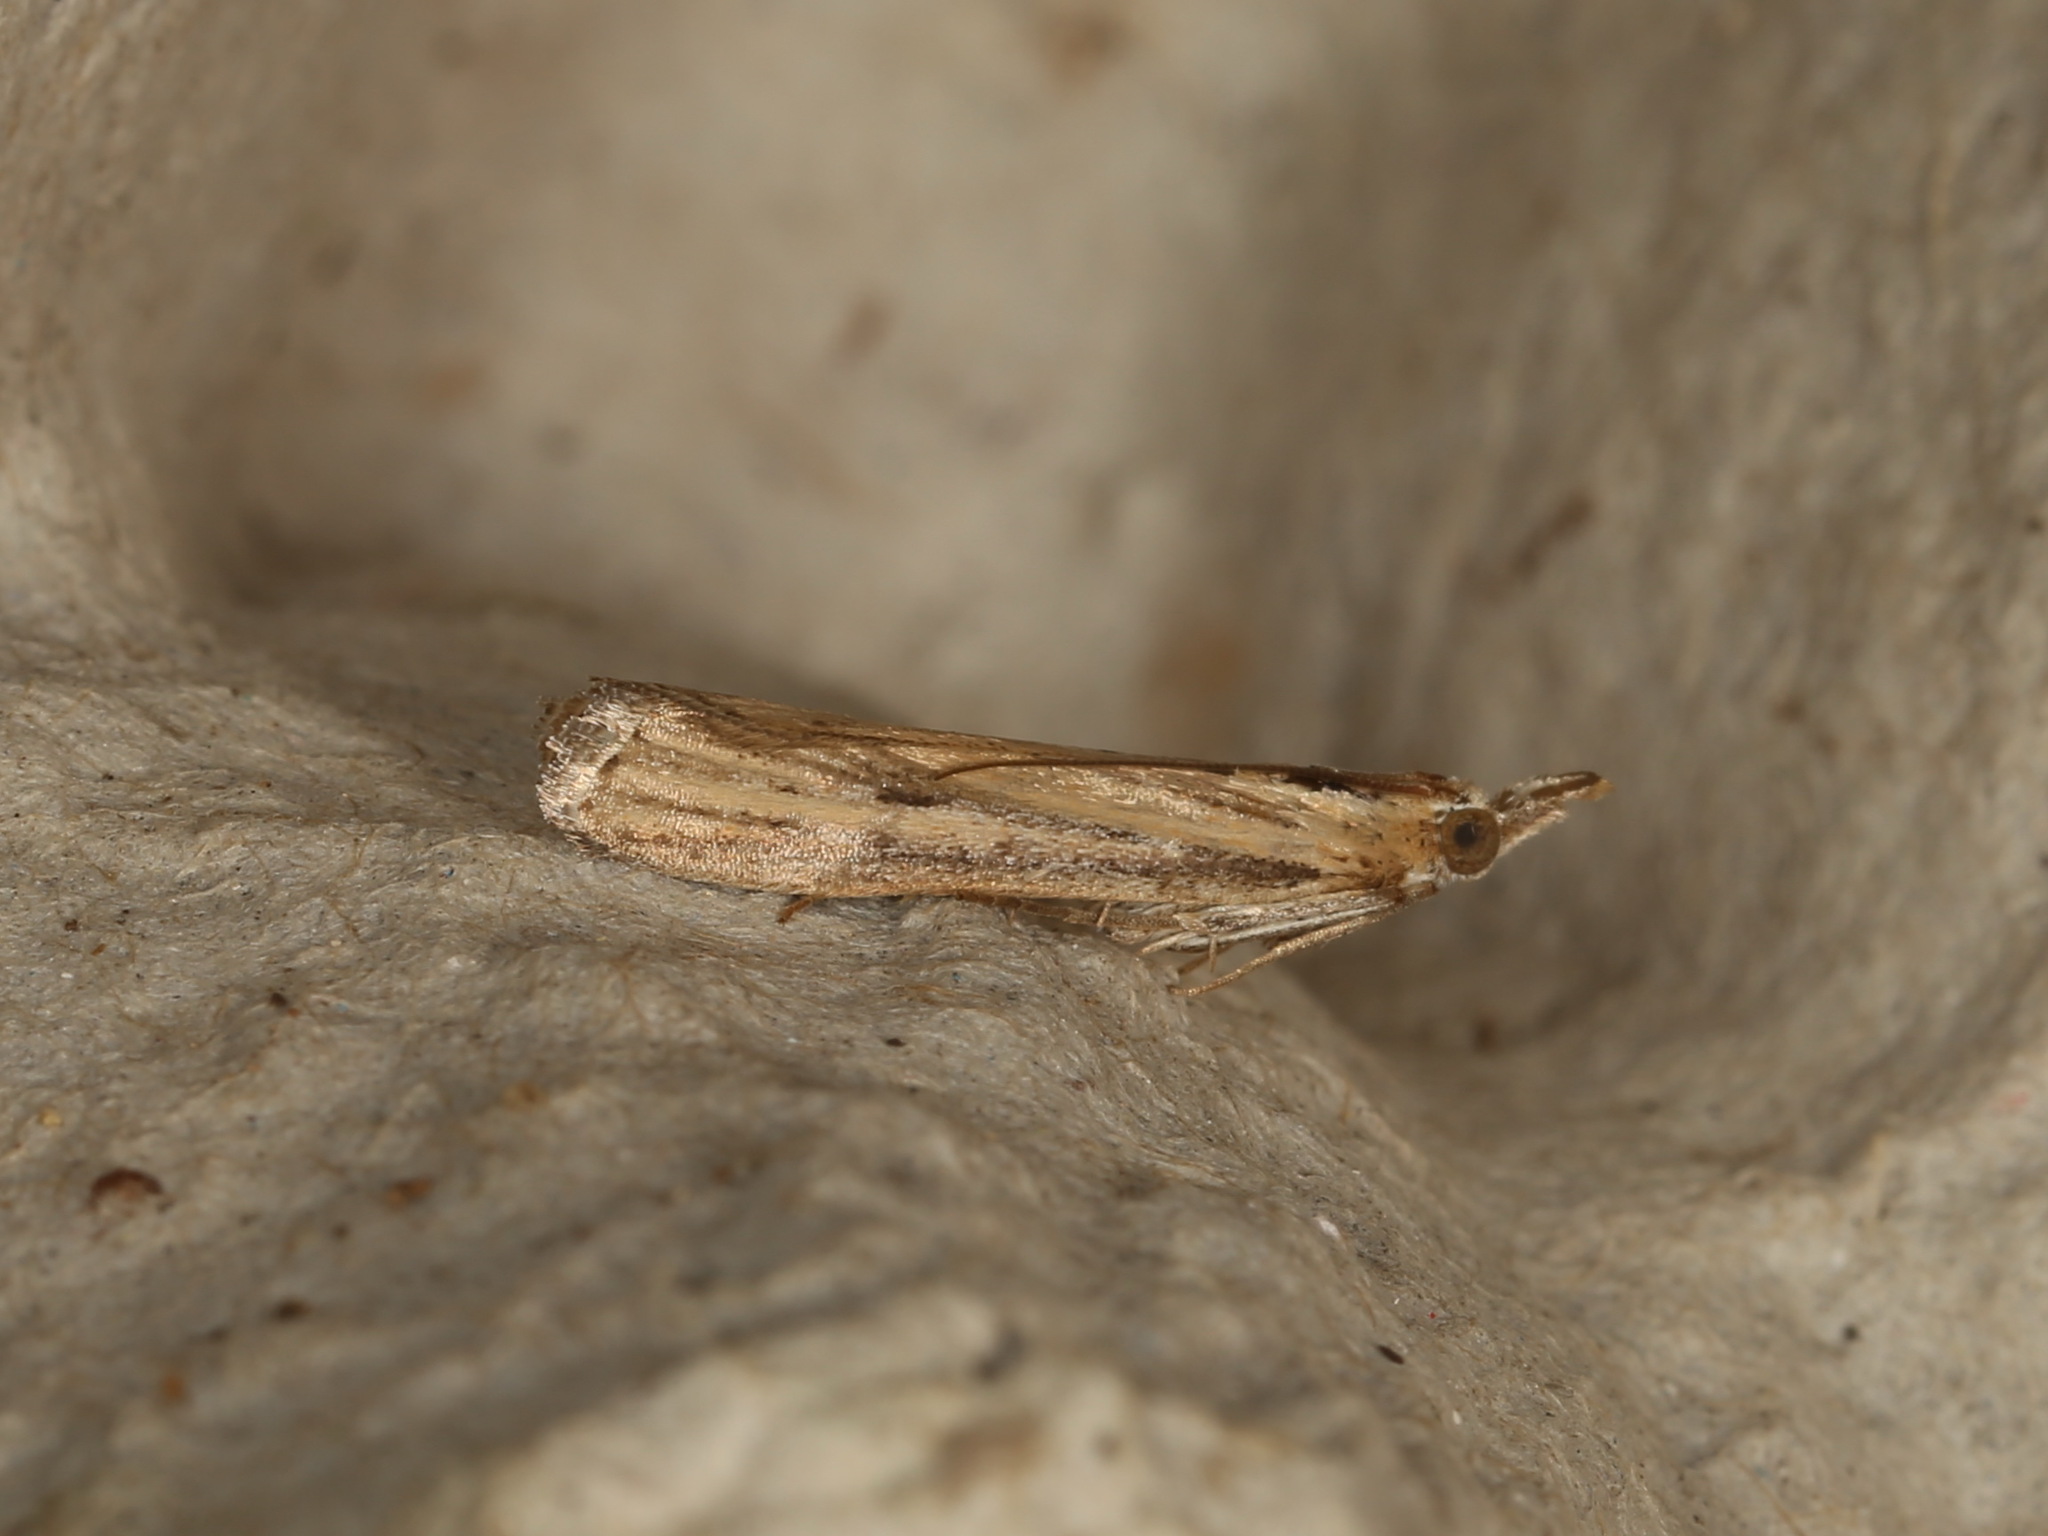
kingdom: Animalia
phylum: Arthropoda
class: Insecta
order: Lepidoptera
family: Pyralidae
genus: Faveria
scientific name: Faveria tritalis
